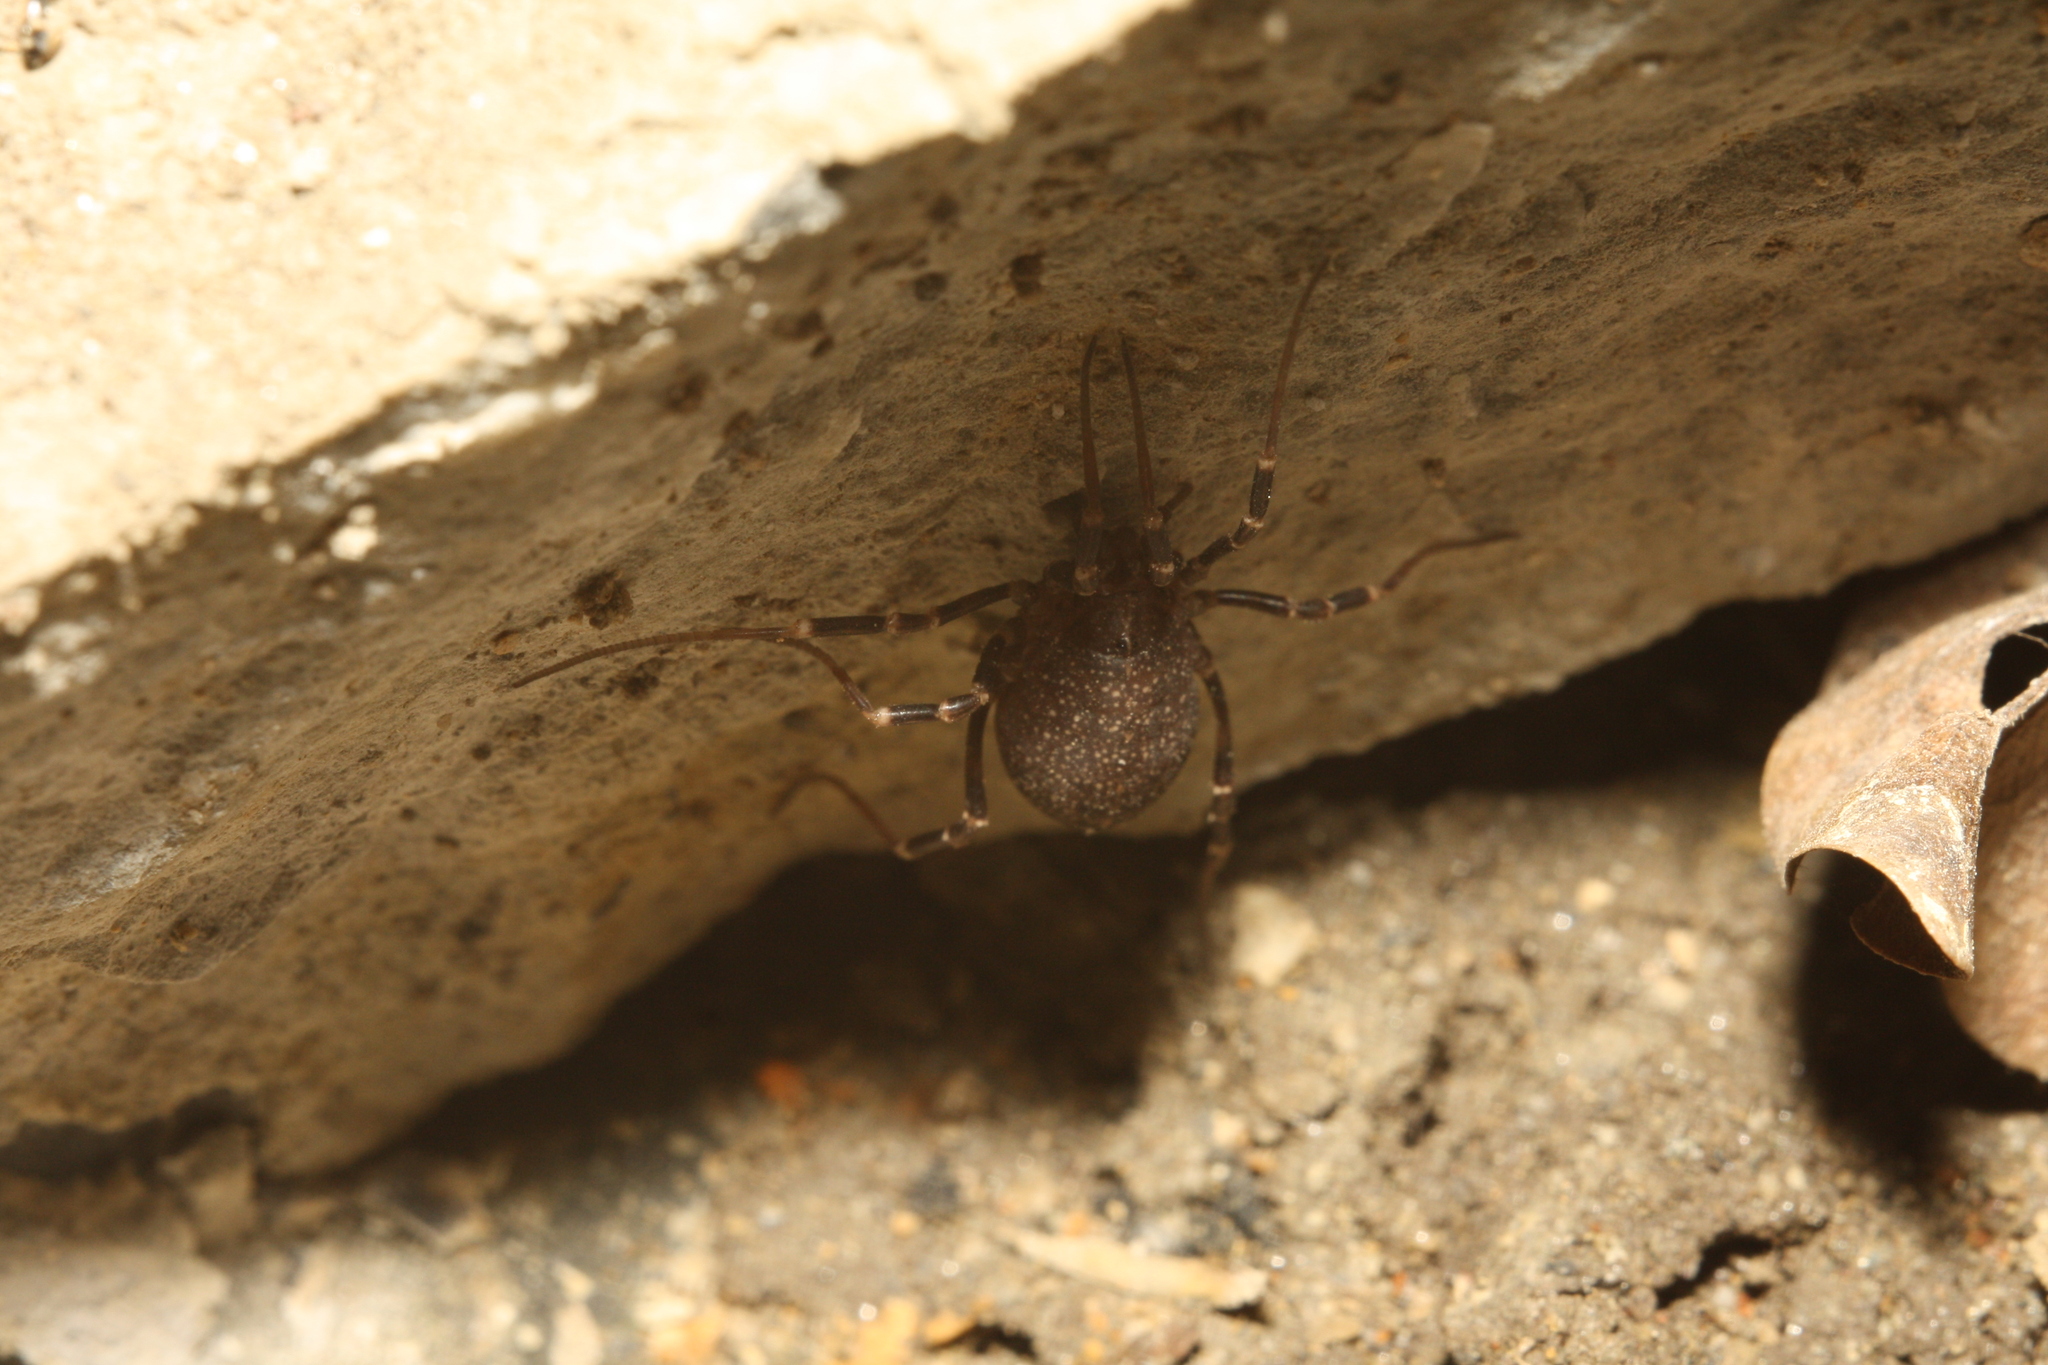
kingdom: Animalia
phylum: Arthropoda
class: Arachnida
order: Opiliones
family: Phalangiidae
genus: Egaenus
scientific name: Egaenus convexus
